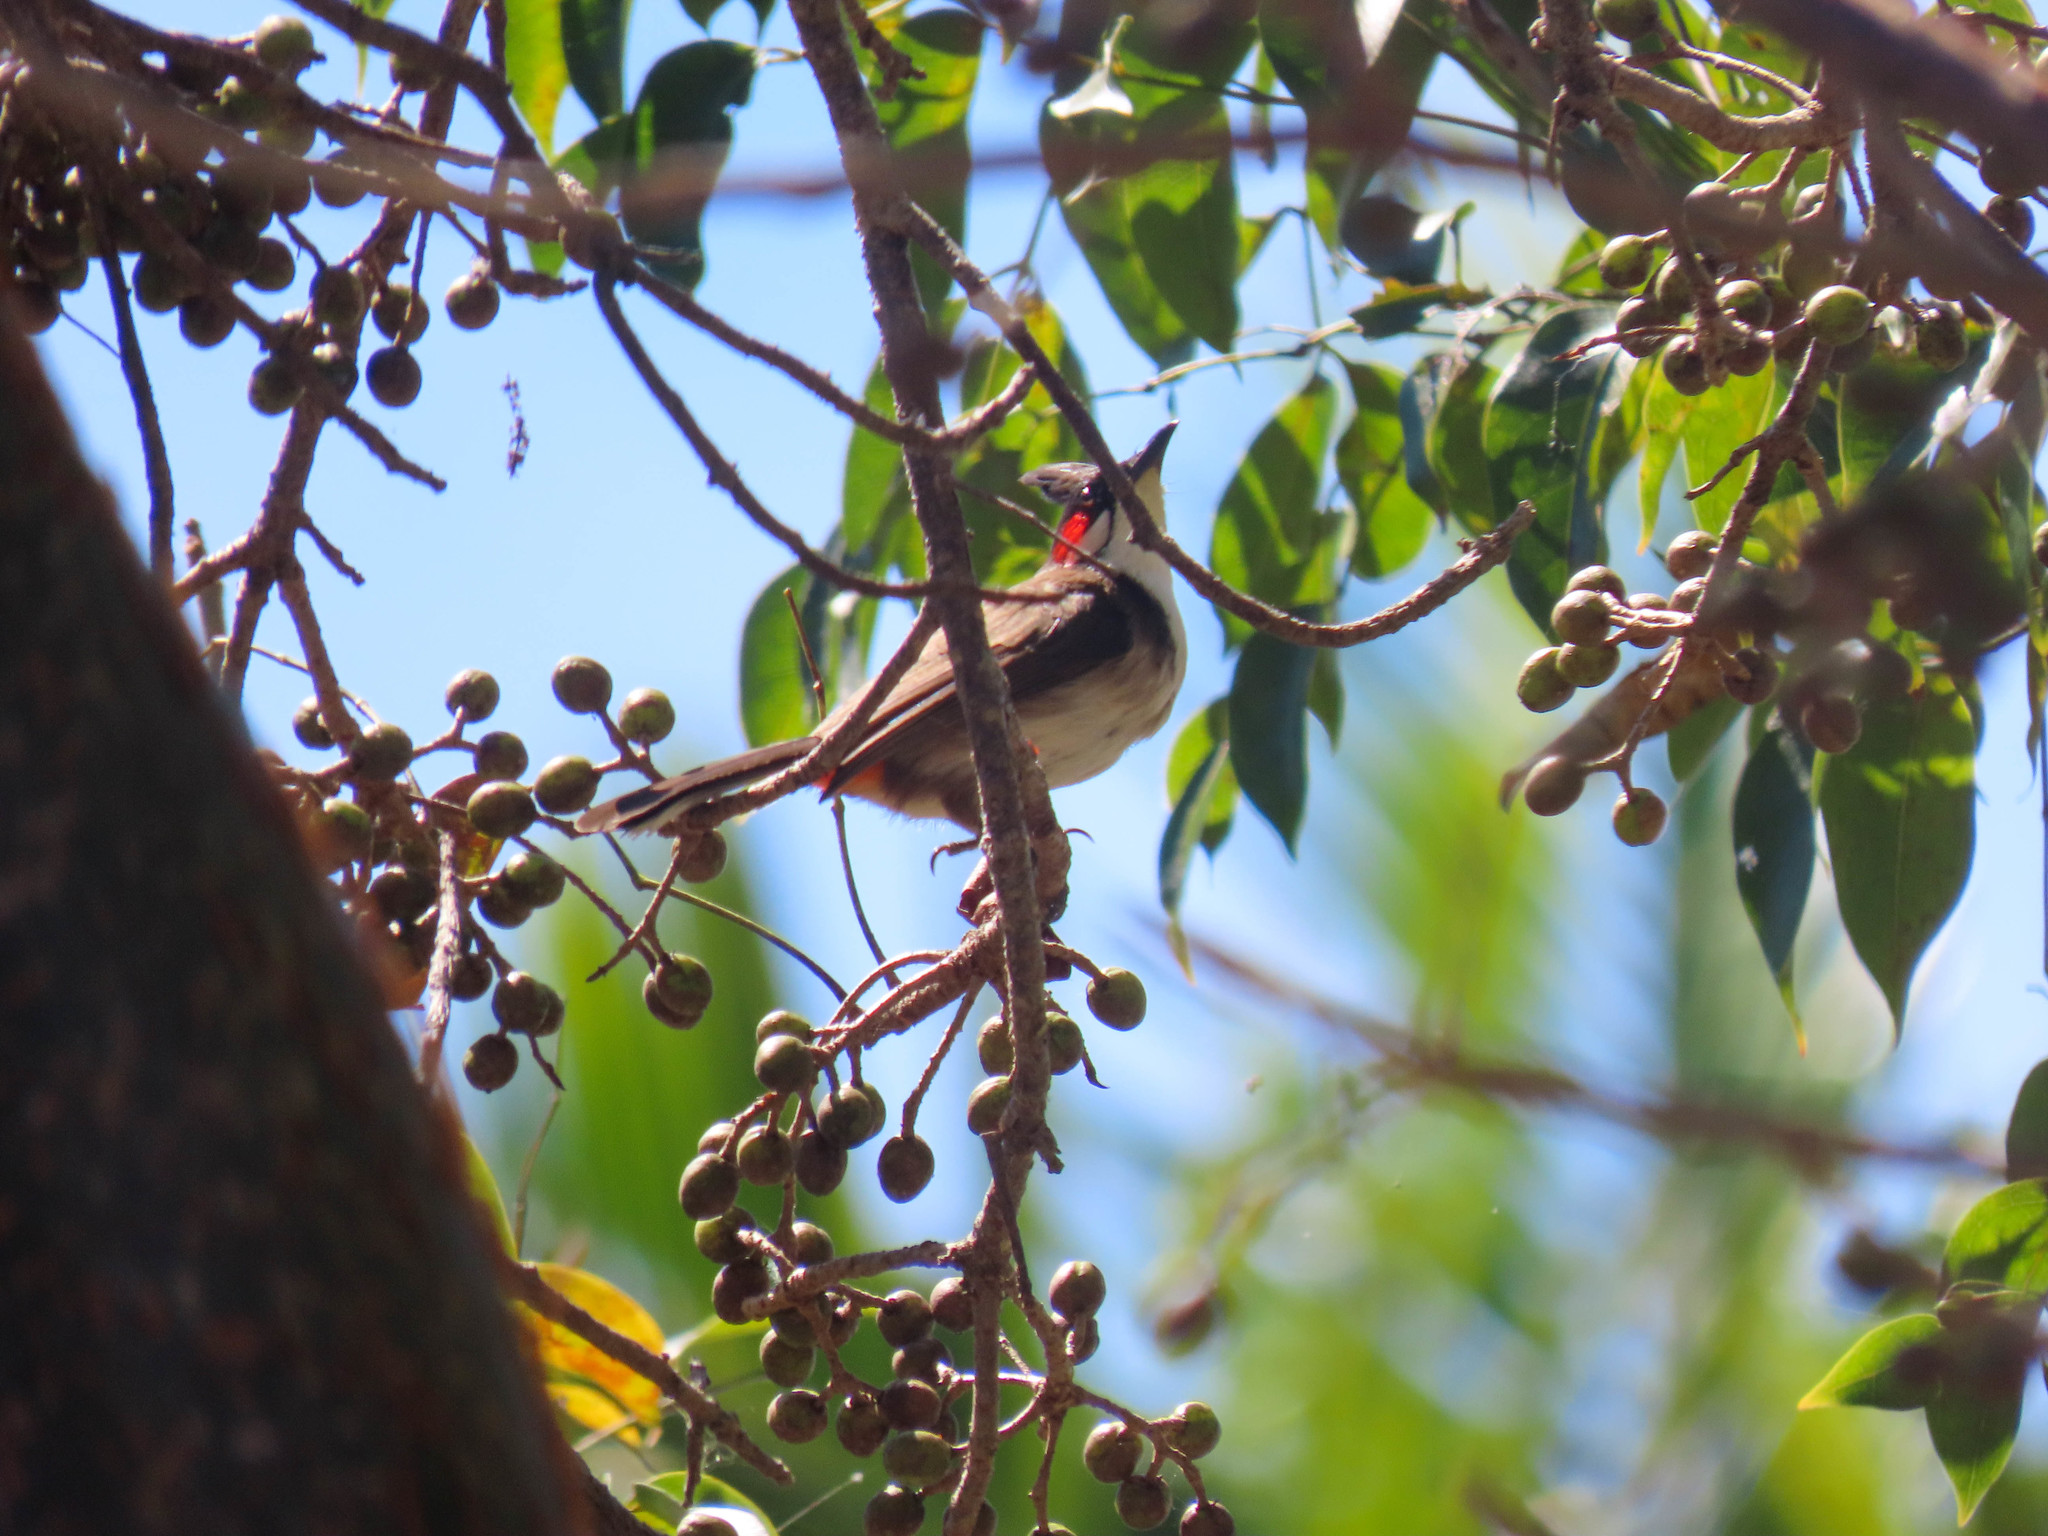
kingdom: Animalia
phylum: Chordata
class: Aves
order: Passeriformes
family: Pycnonotidae
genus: Pycnonotus
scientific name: Pycnonotus jocosus
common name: Red-whiskered bulbul
